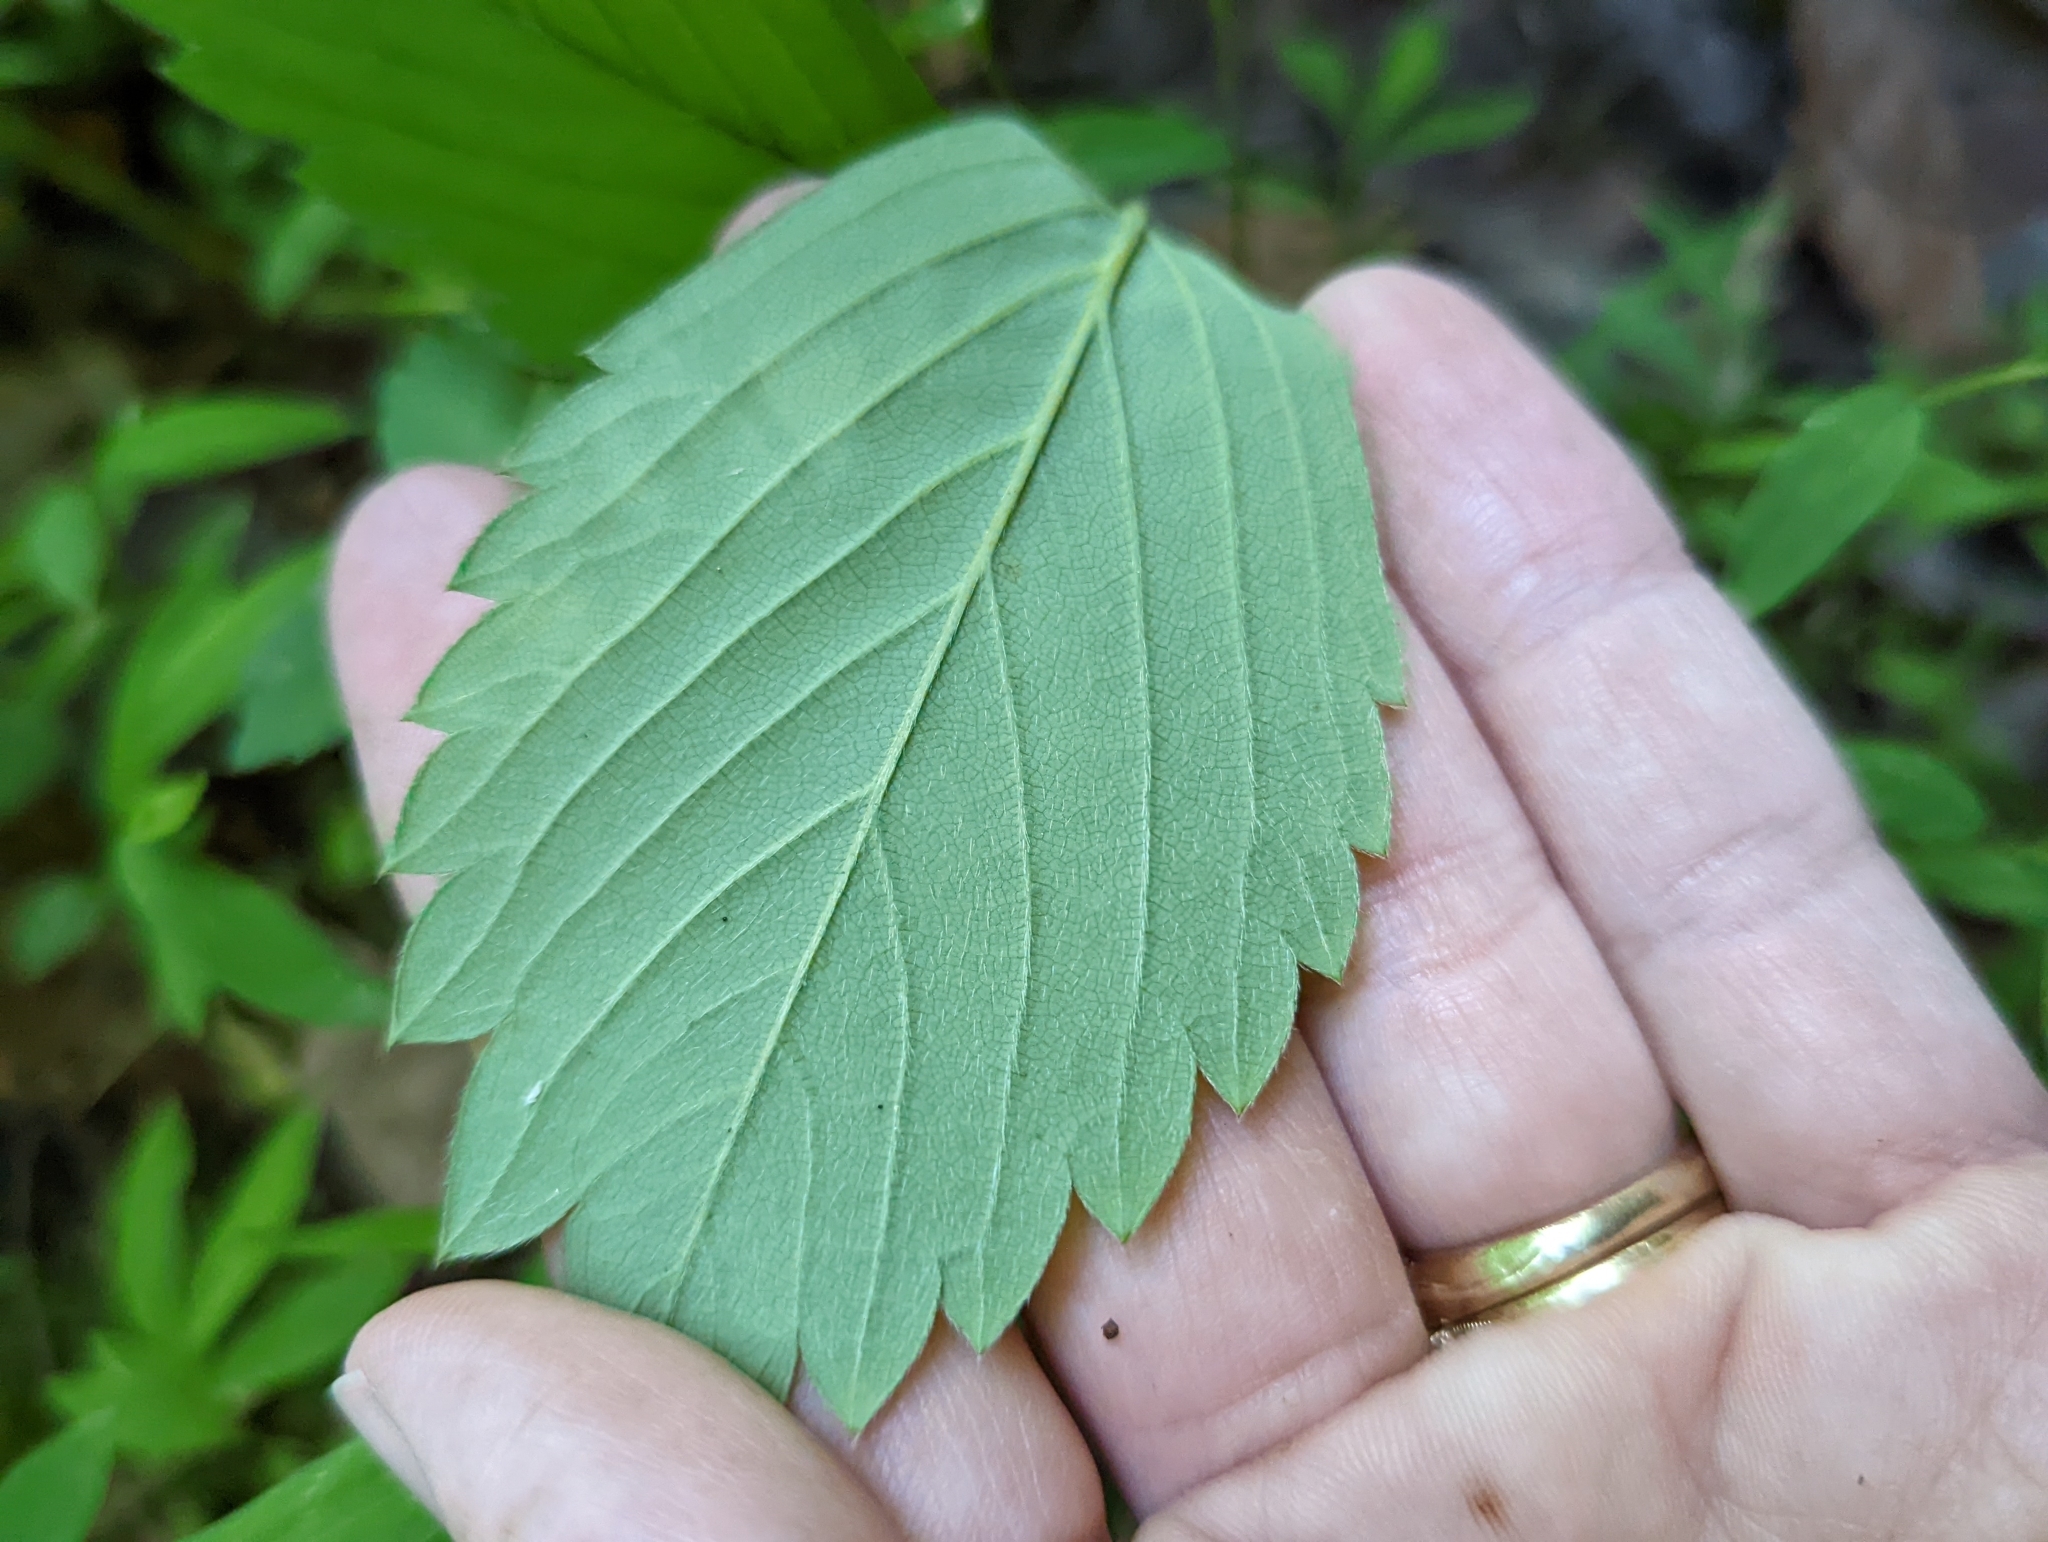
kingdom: Plantae
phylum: Tracheophyta
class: Magnoliopsida
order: Rosales
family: Rosaceae
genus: Fragaria
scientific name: Fragaria virginiana
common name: Thickleaved wild strawberry
